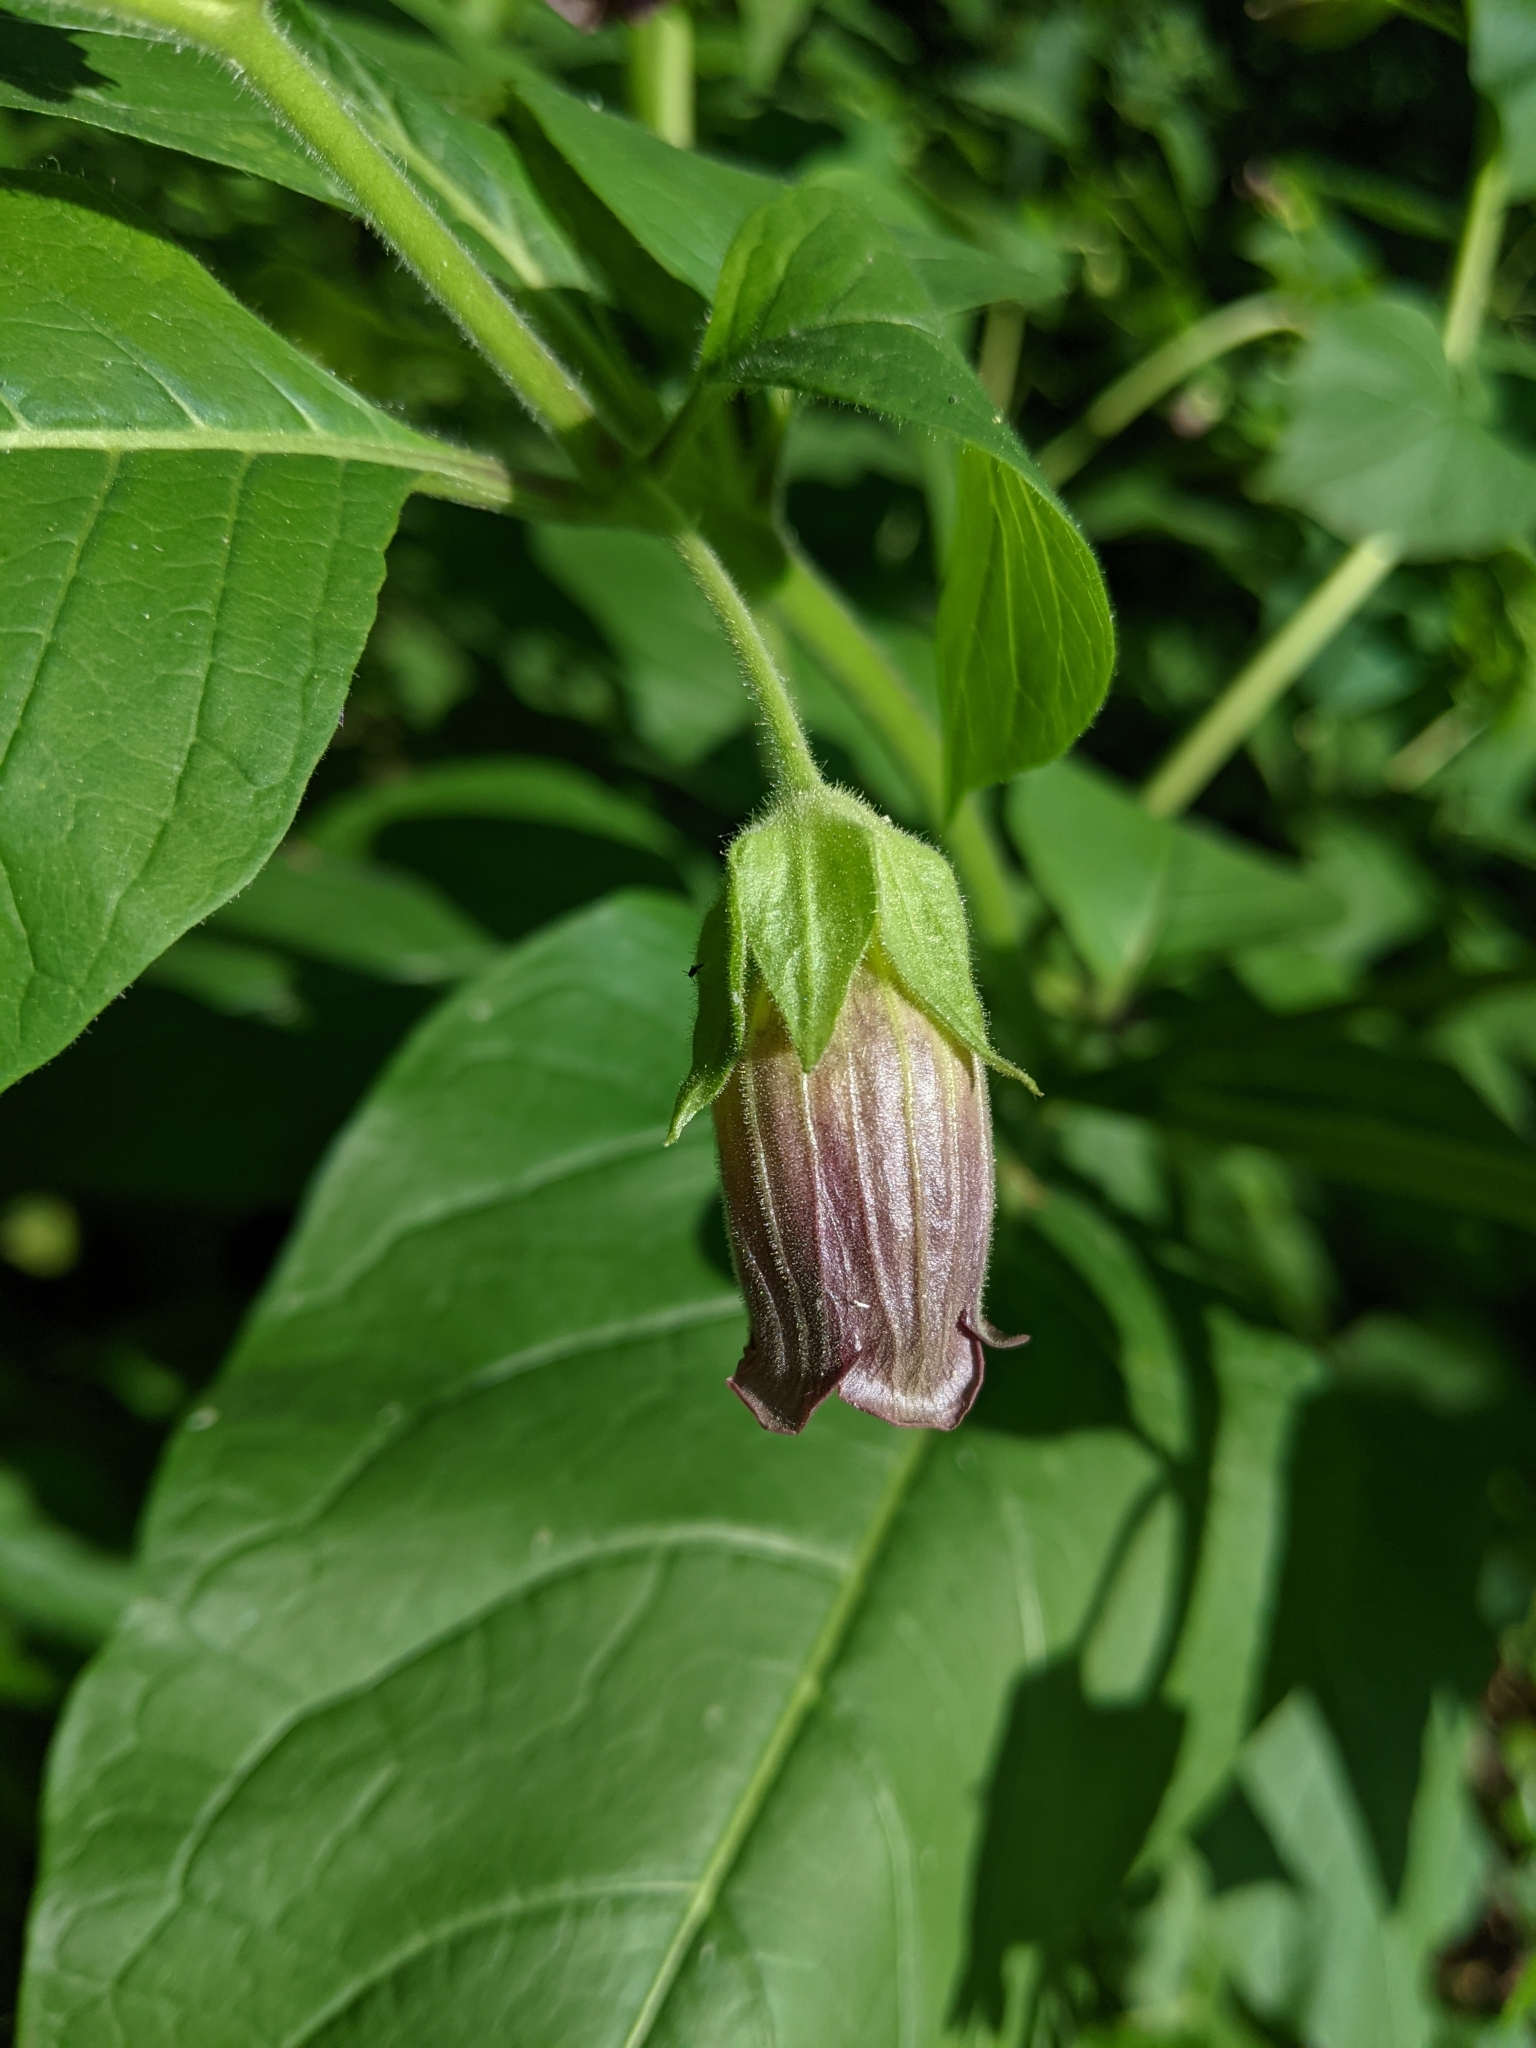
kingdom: Plantae
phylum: Tracheophyta
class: Magnoliopsida
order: Solanales
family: Solanaceae
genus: Atropa
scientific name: Atropa belladonna
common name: Deadly nightshade
